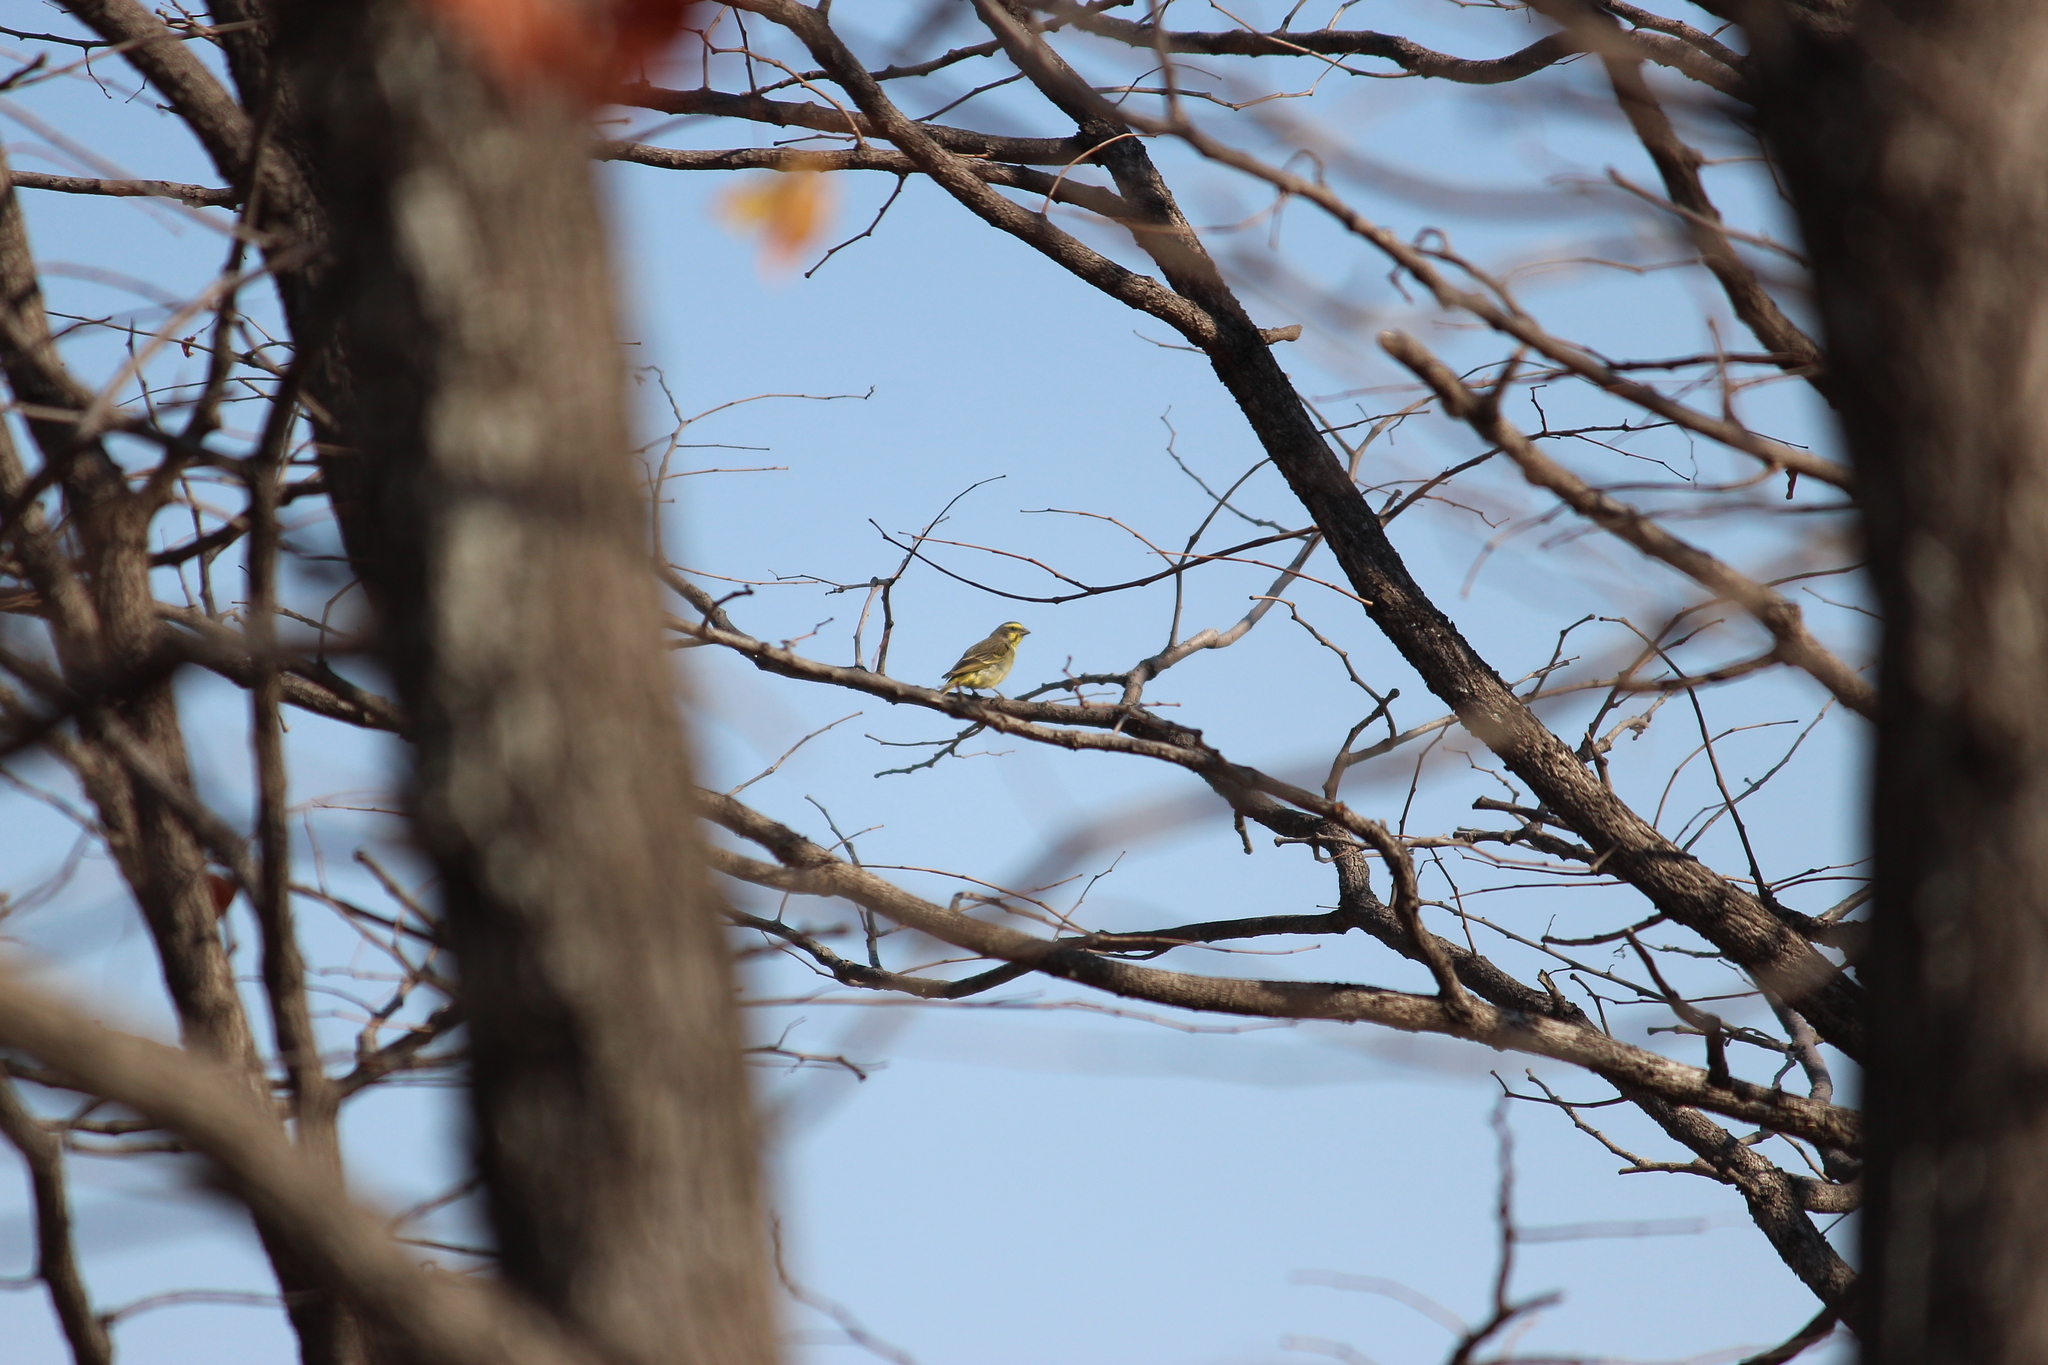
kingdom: Animalia
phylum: Chordata
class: Aves
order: Passeriformes
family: Fringillidae
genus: Crithagra
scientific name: Crithagra mozambica
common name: Yellow-fronted canary
